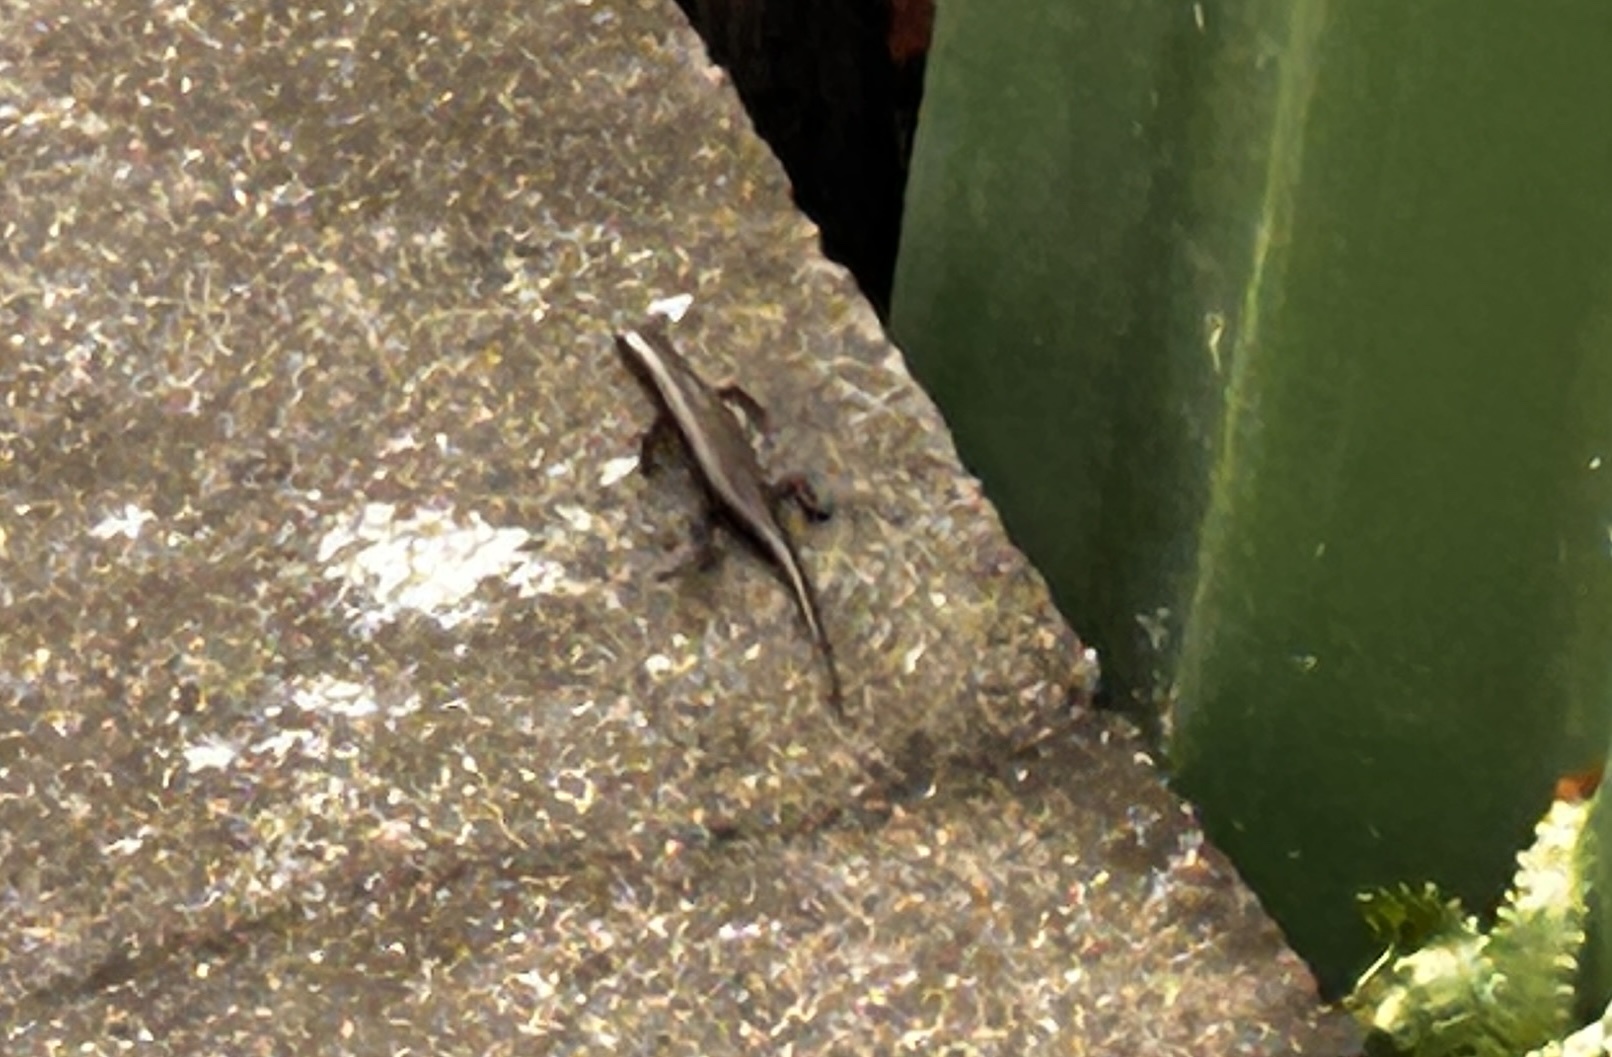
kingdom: Animalia
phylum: Chordata
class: Squamata
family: Scincidae
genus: Eutropis
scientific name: Eutropis multifasciata
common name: Common mabuya
